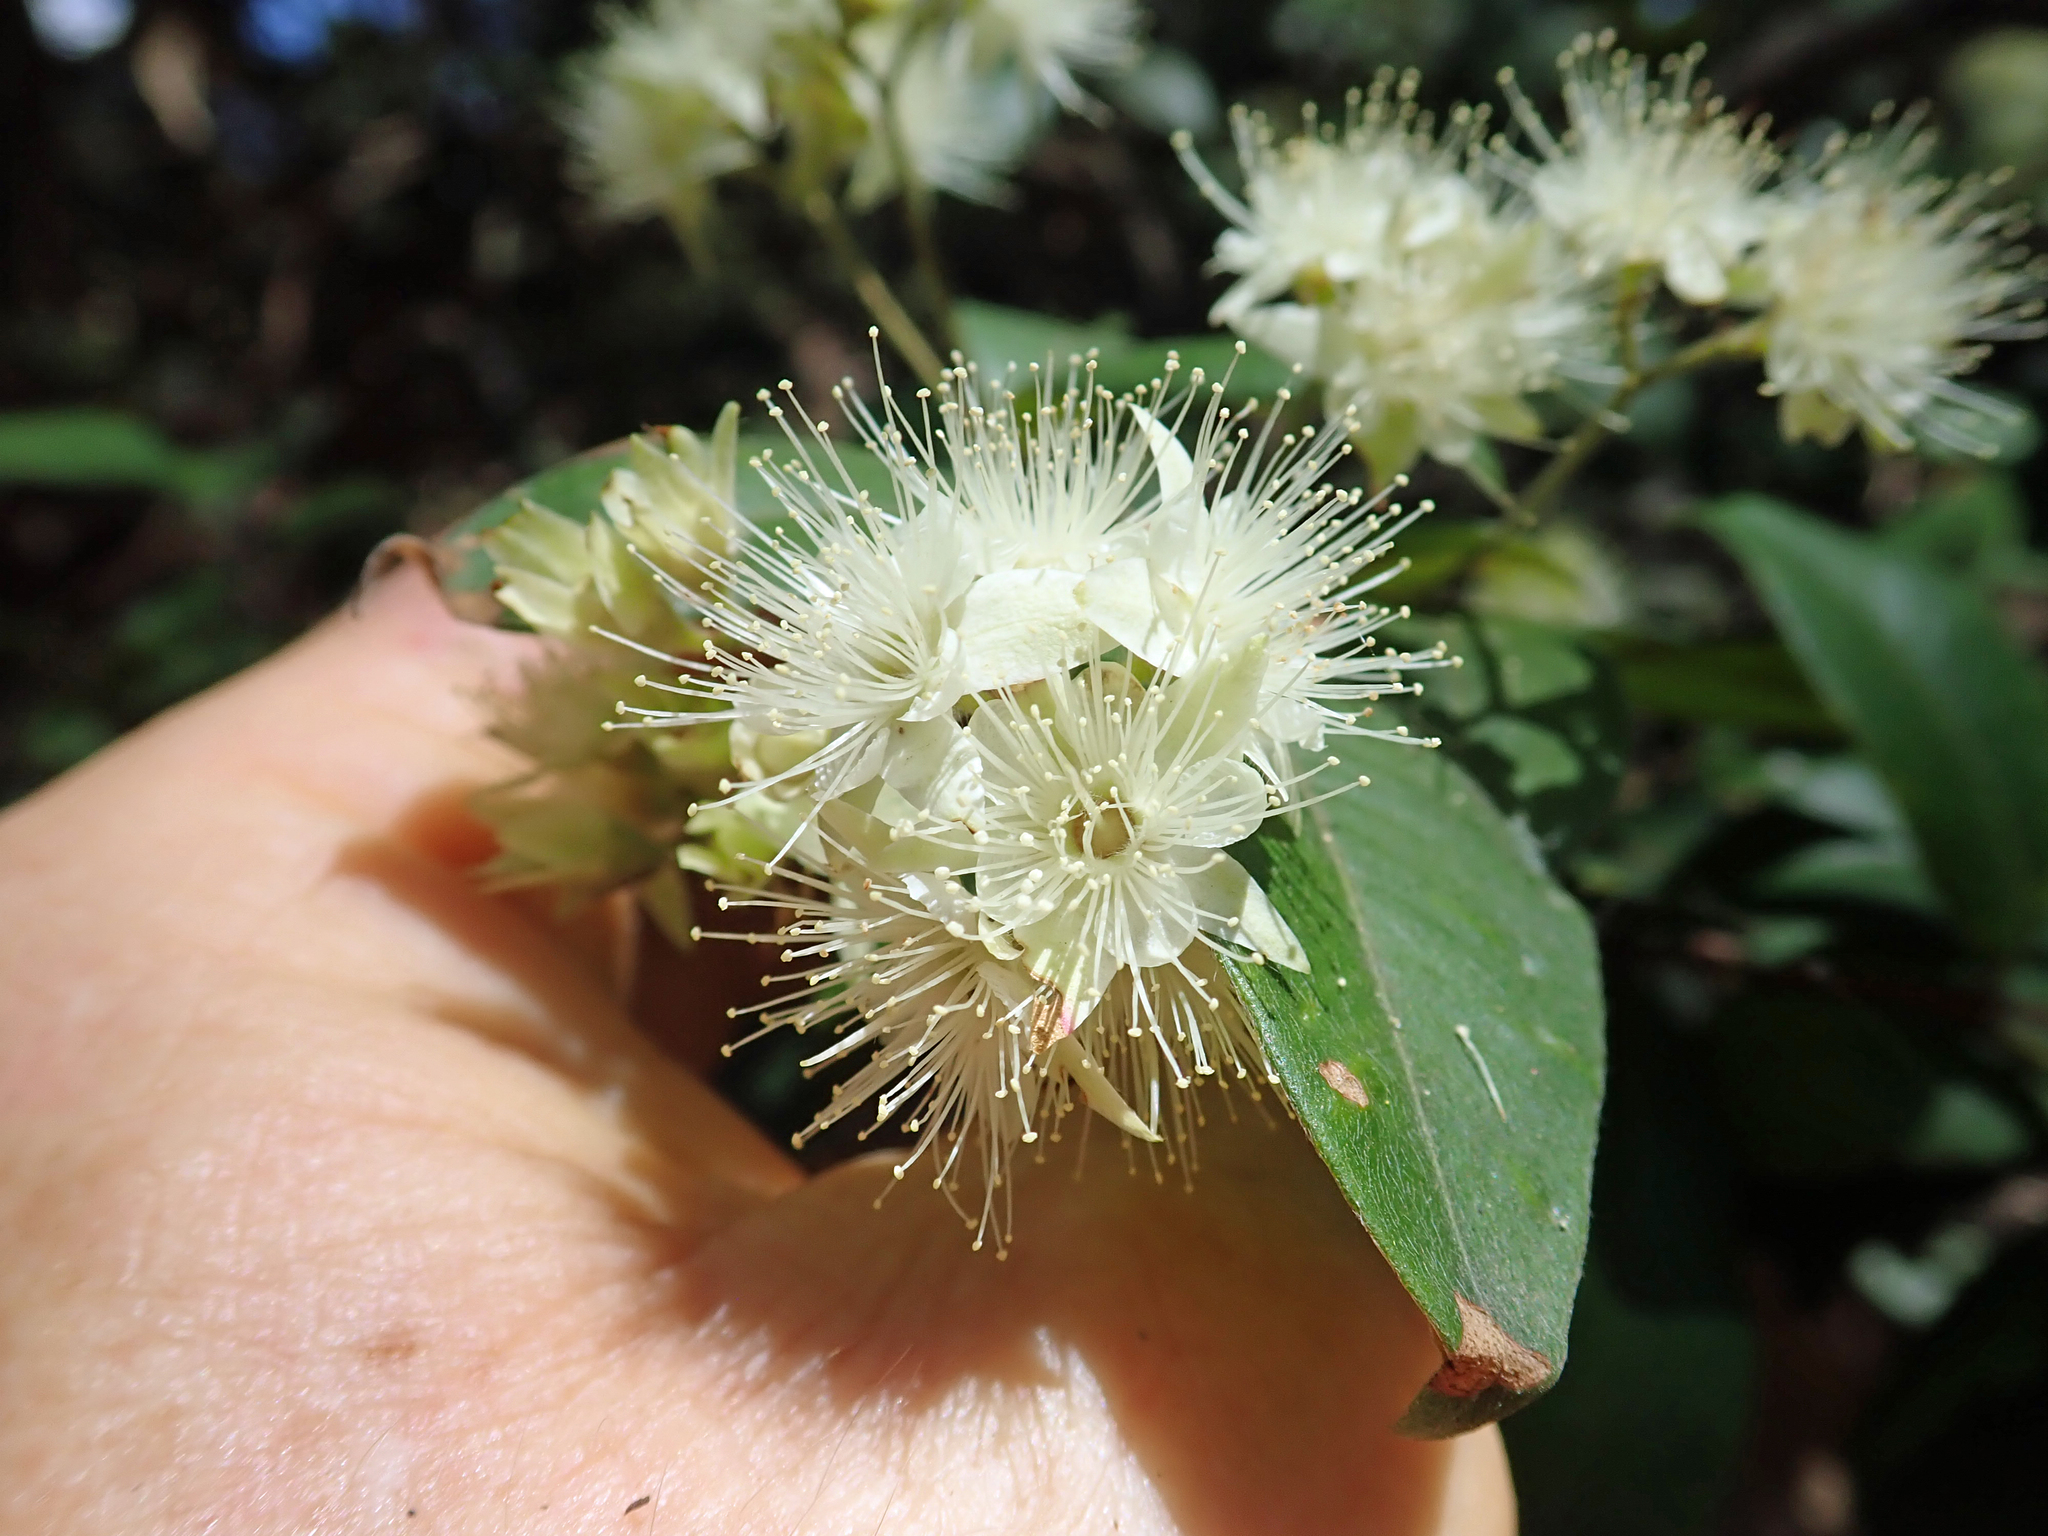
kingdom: Plantae
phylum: Tracheophyta
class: Magnoliopsida
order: Myrtales
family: Myrtaceae
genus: Backhousia
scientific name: Backhousia myrtifolia
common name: Carrol
